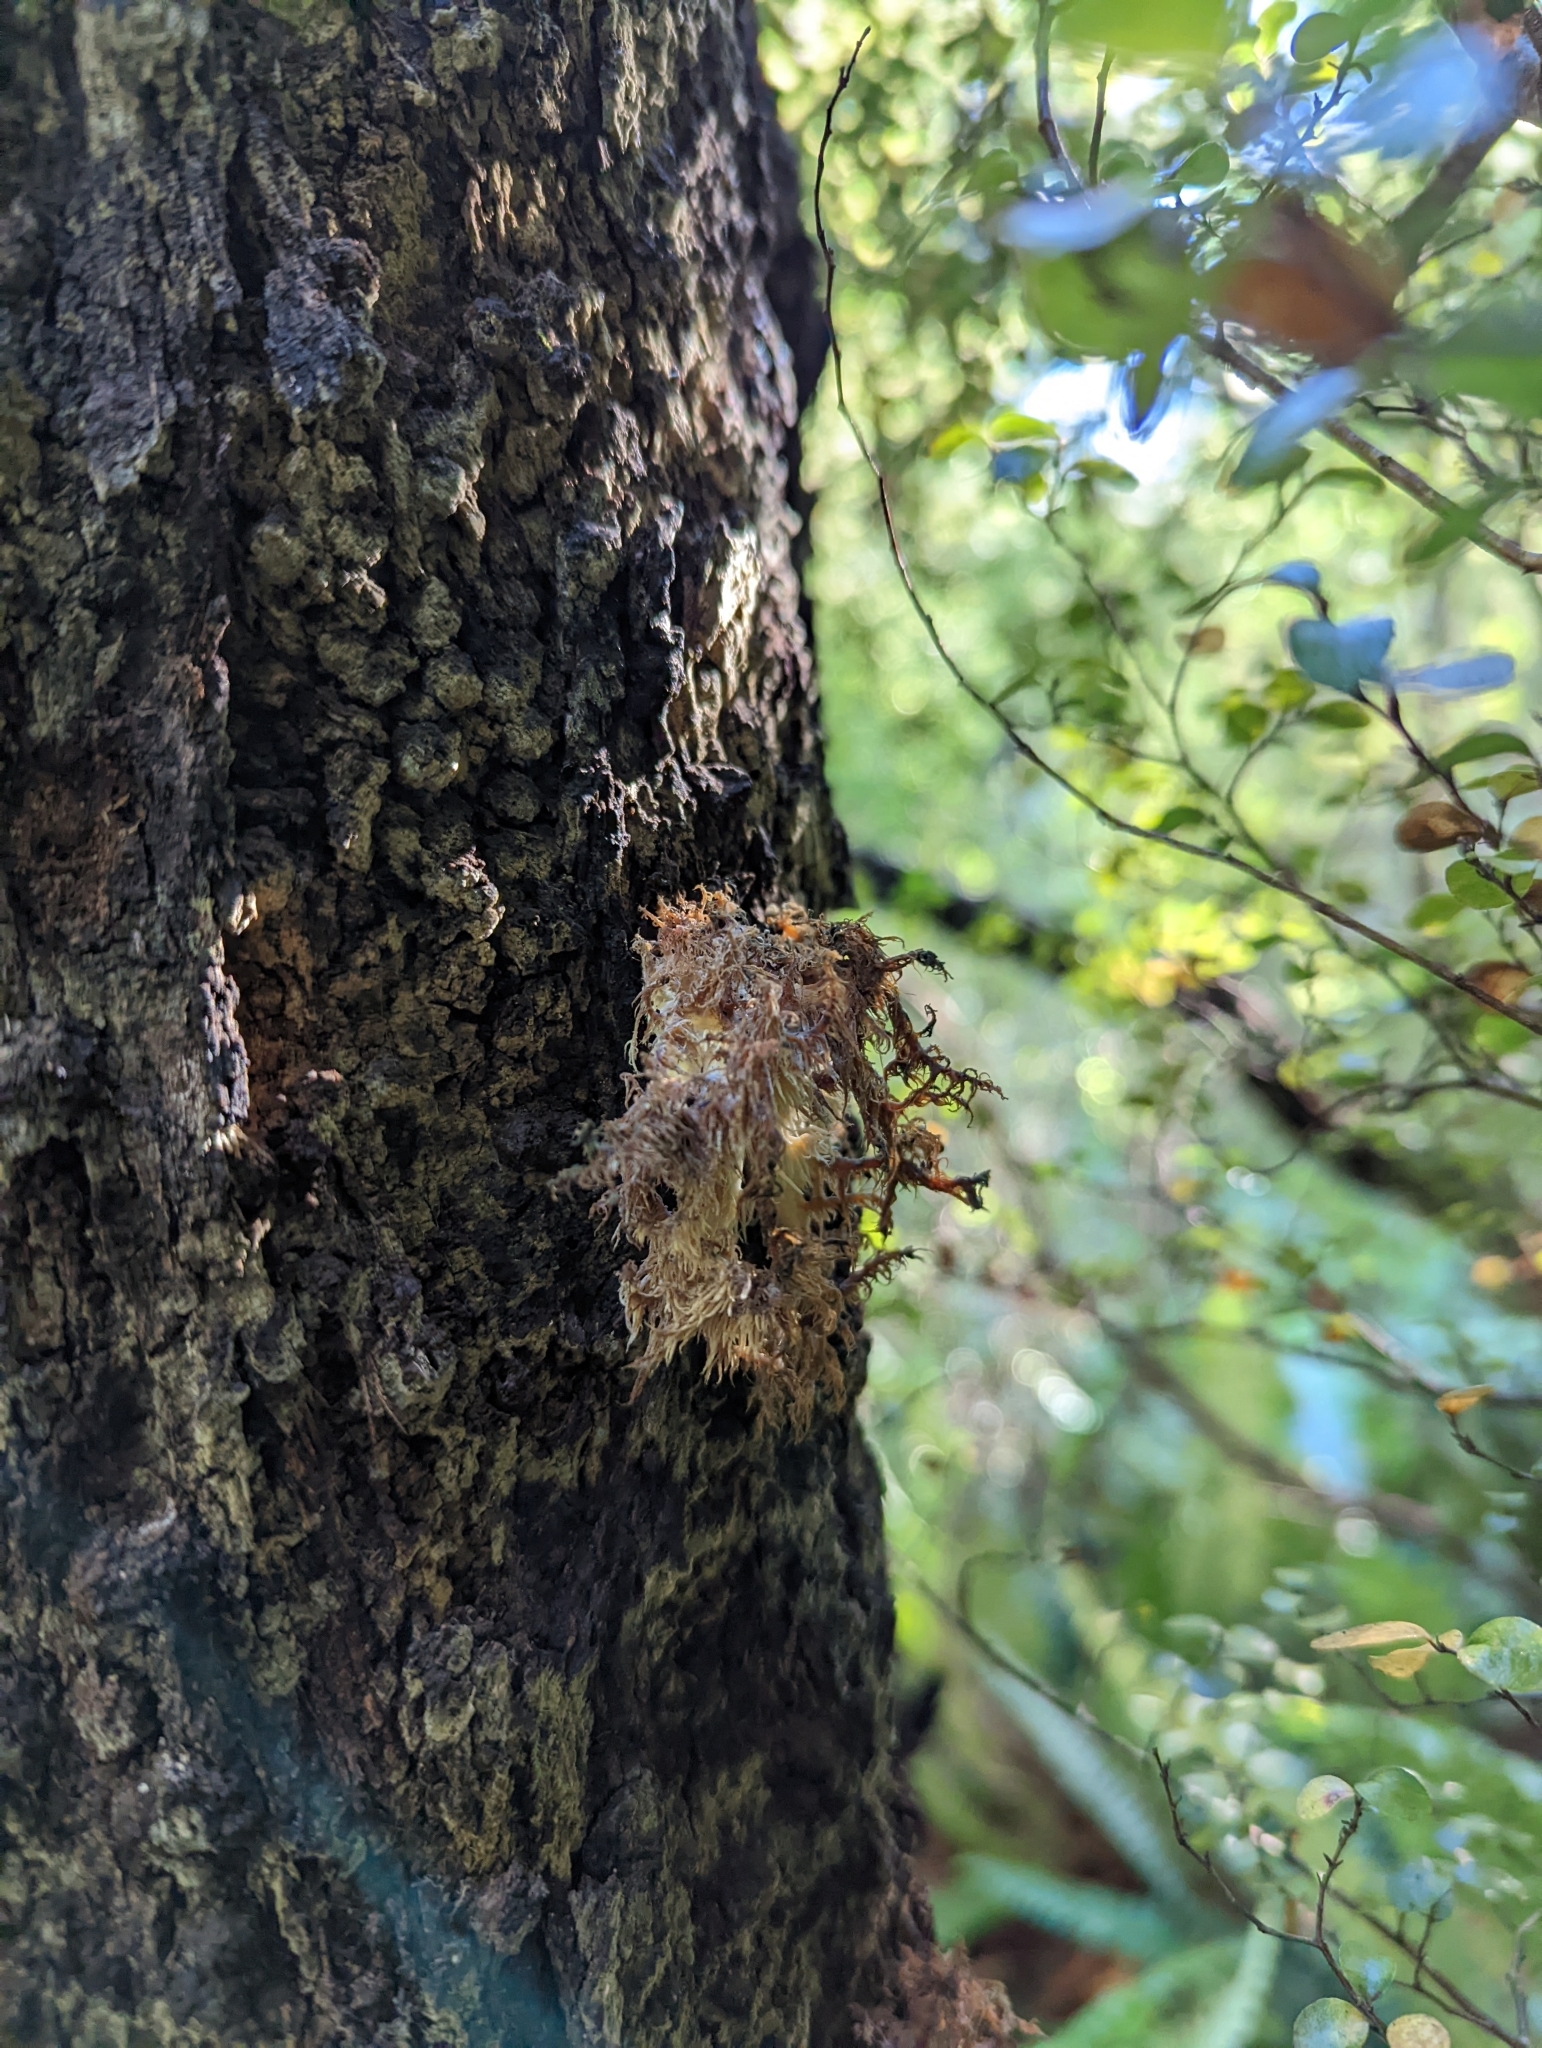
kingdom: Fungi
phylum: Basidiomycota
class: Agaricomycetes
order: Russulales
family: Hericiaceae
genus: Hericium
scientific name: Hericium novae-zealandiae
